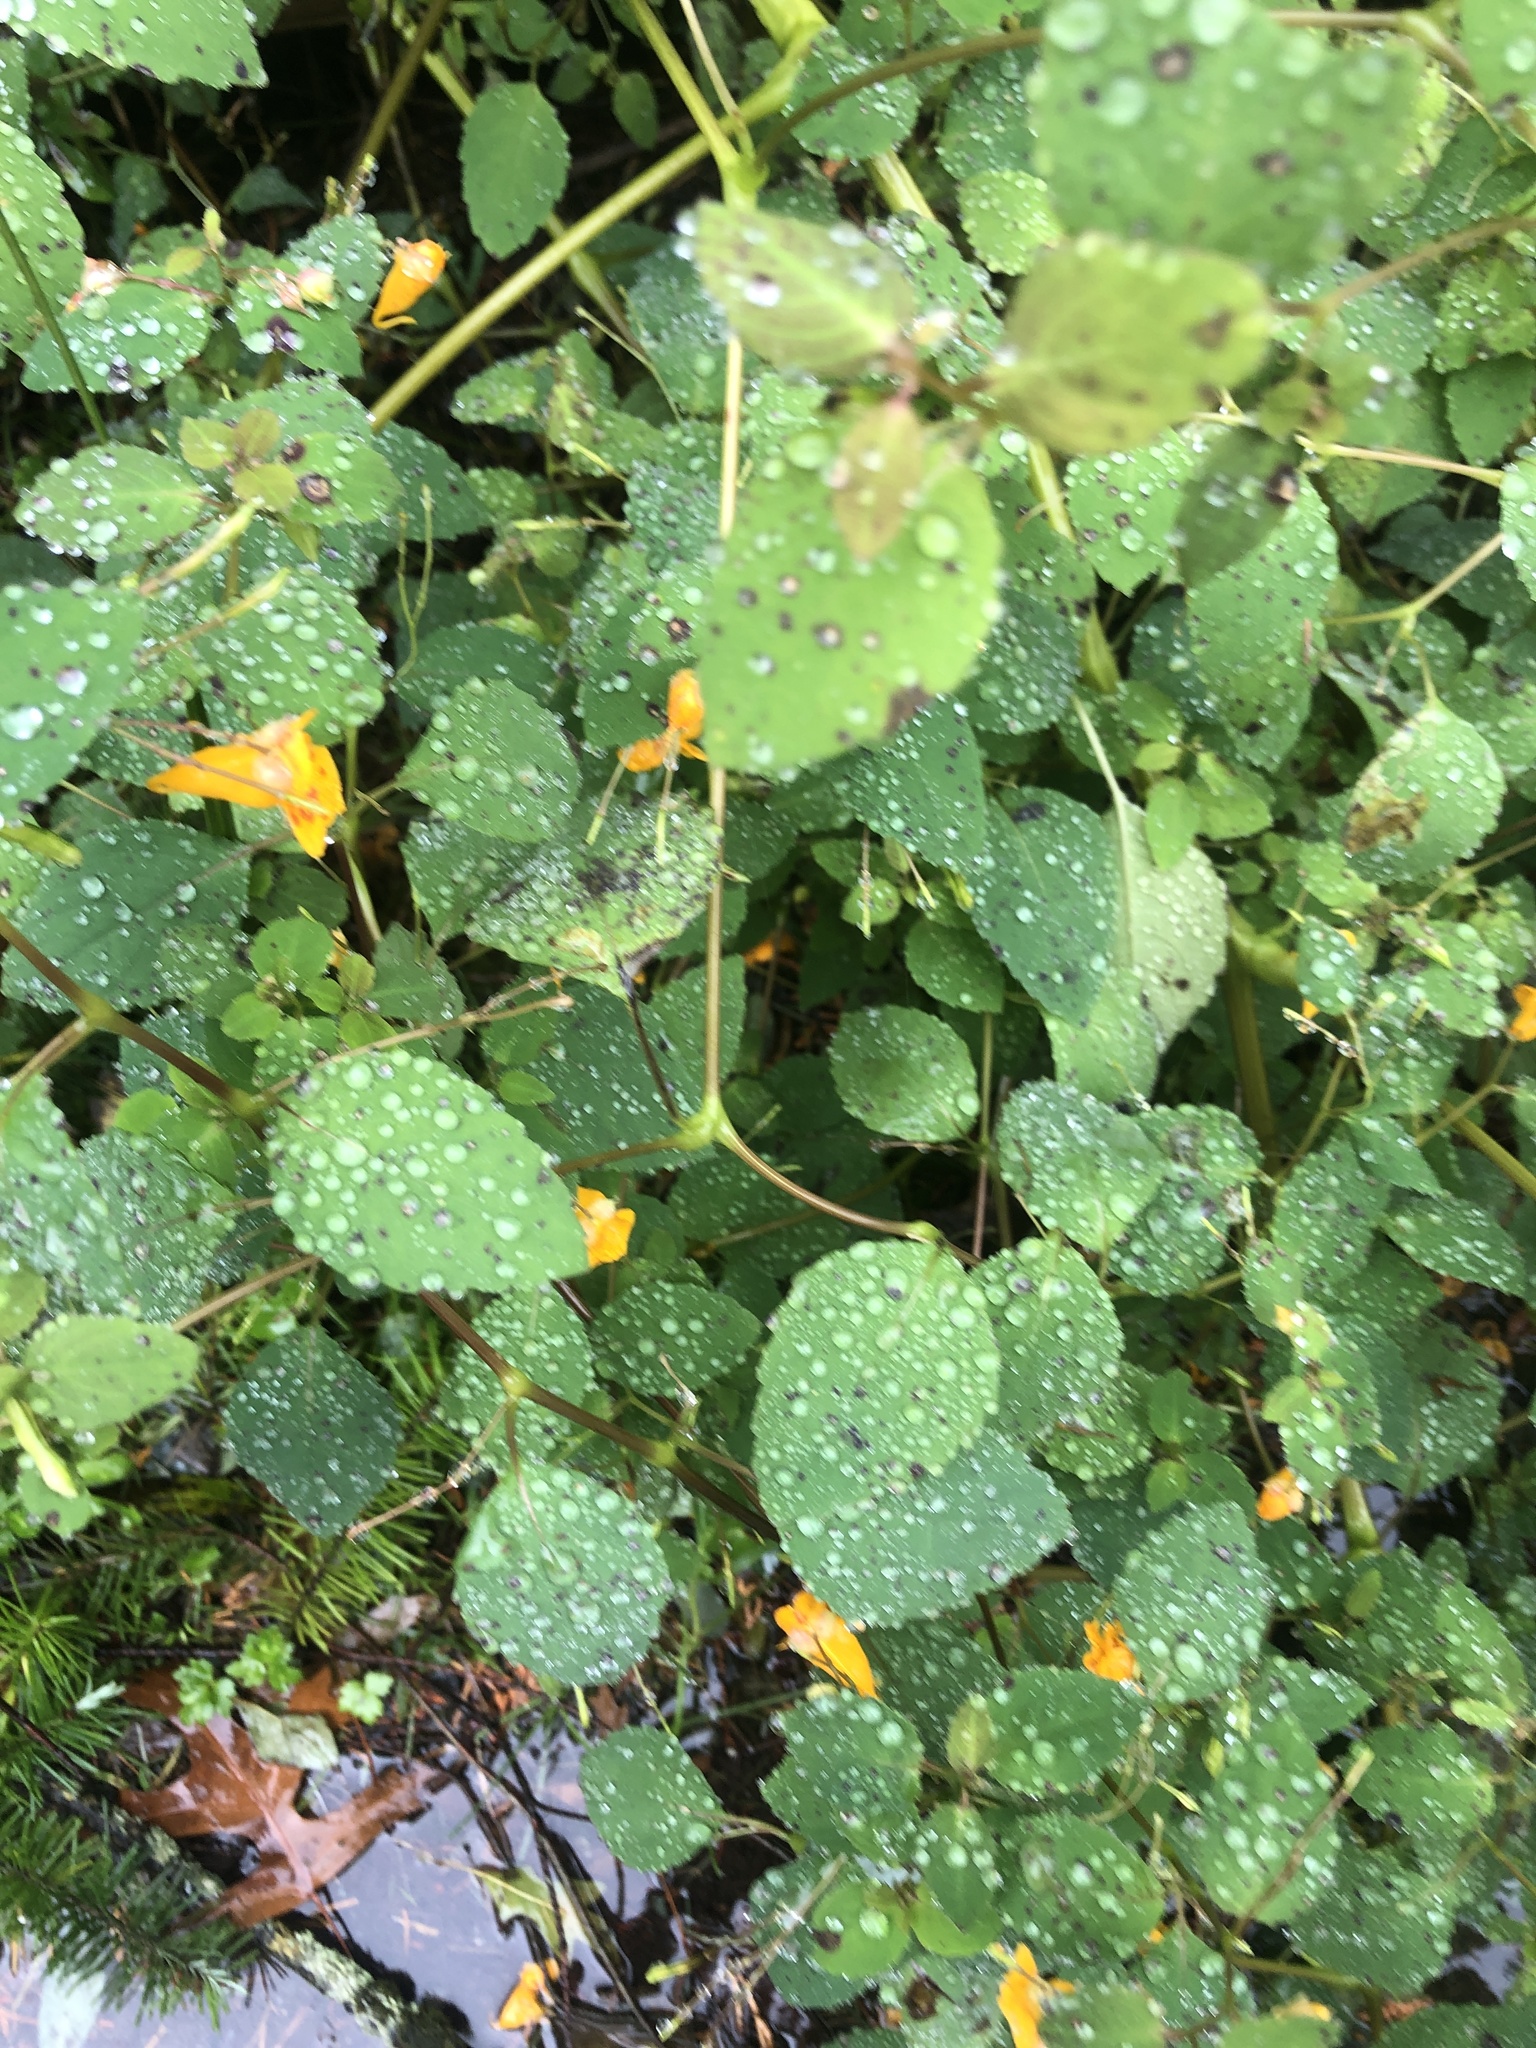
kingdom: Plantae
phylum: Tracheophyta
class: Magnoliopsida
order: Ericales
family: Balsaminaceae
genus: Impatiens
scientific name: Impatiens capensis
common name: Orange balsam
